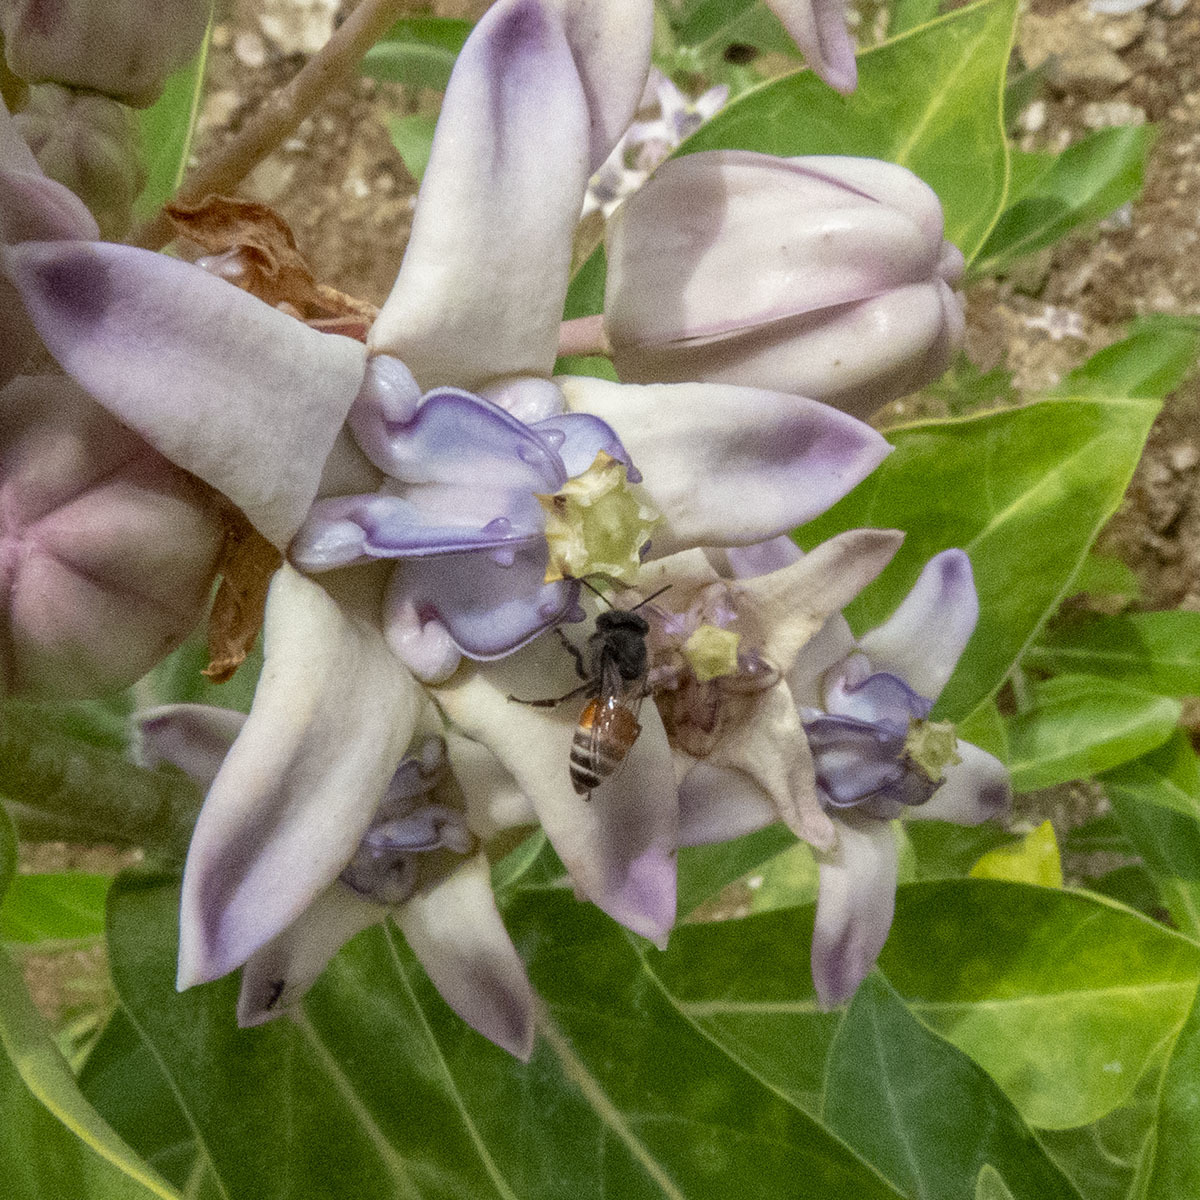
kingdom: Animalia
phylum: Arthropoda
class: Insecta
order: Hymenoptera
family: Apidae
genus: Apis
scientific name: Apis florea
